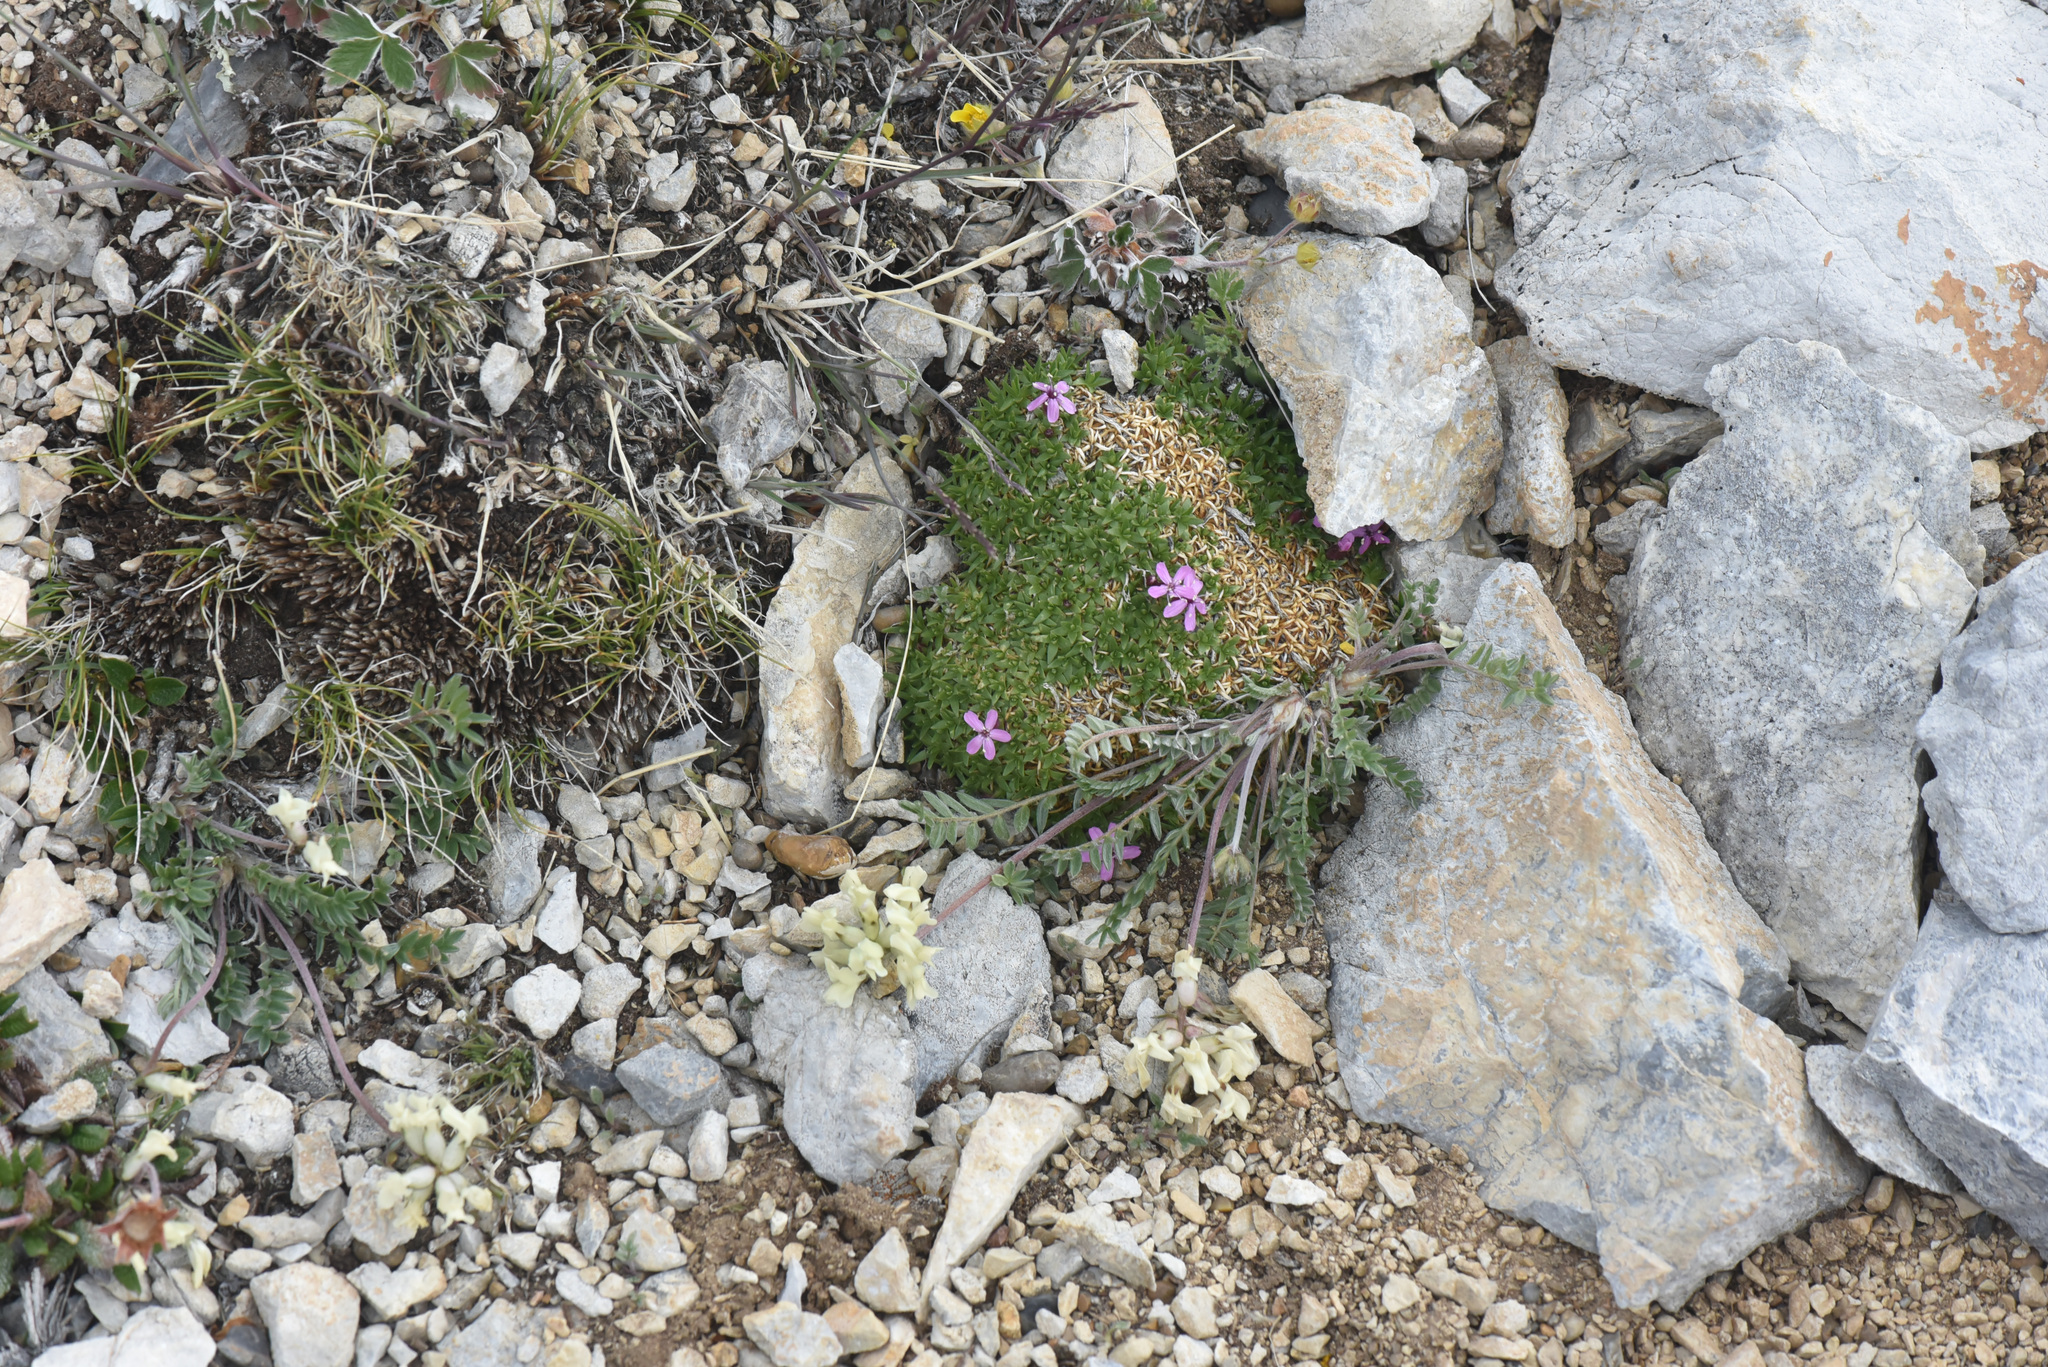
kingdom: Plantae
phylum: Tracheophyta
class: Magnoliopsida
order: Caryophyllales
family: Caryophyllaceae
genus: Silene
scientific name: Silene acaulis
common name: Moss campion
